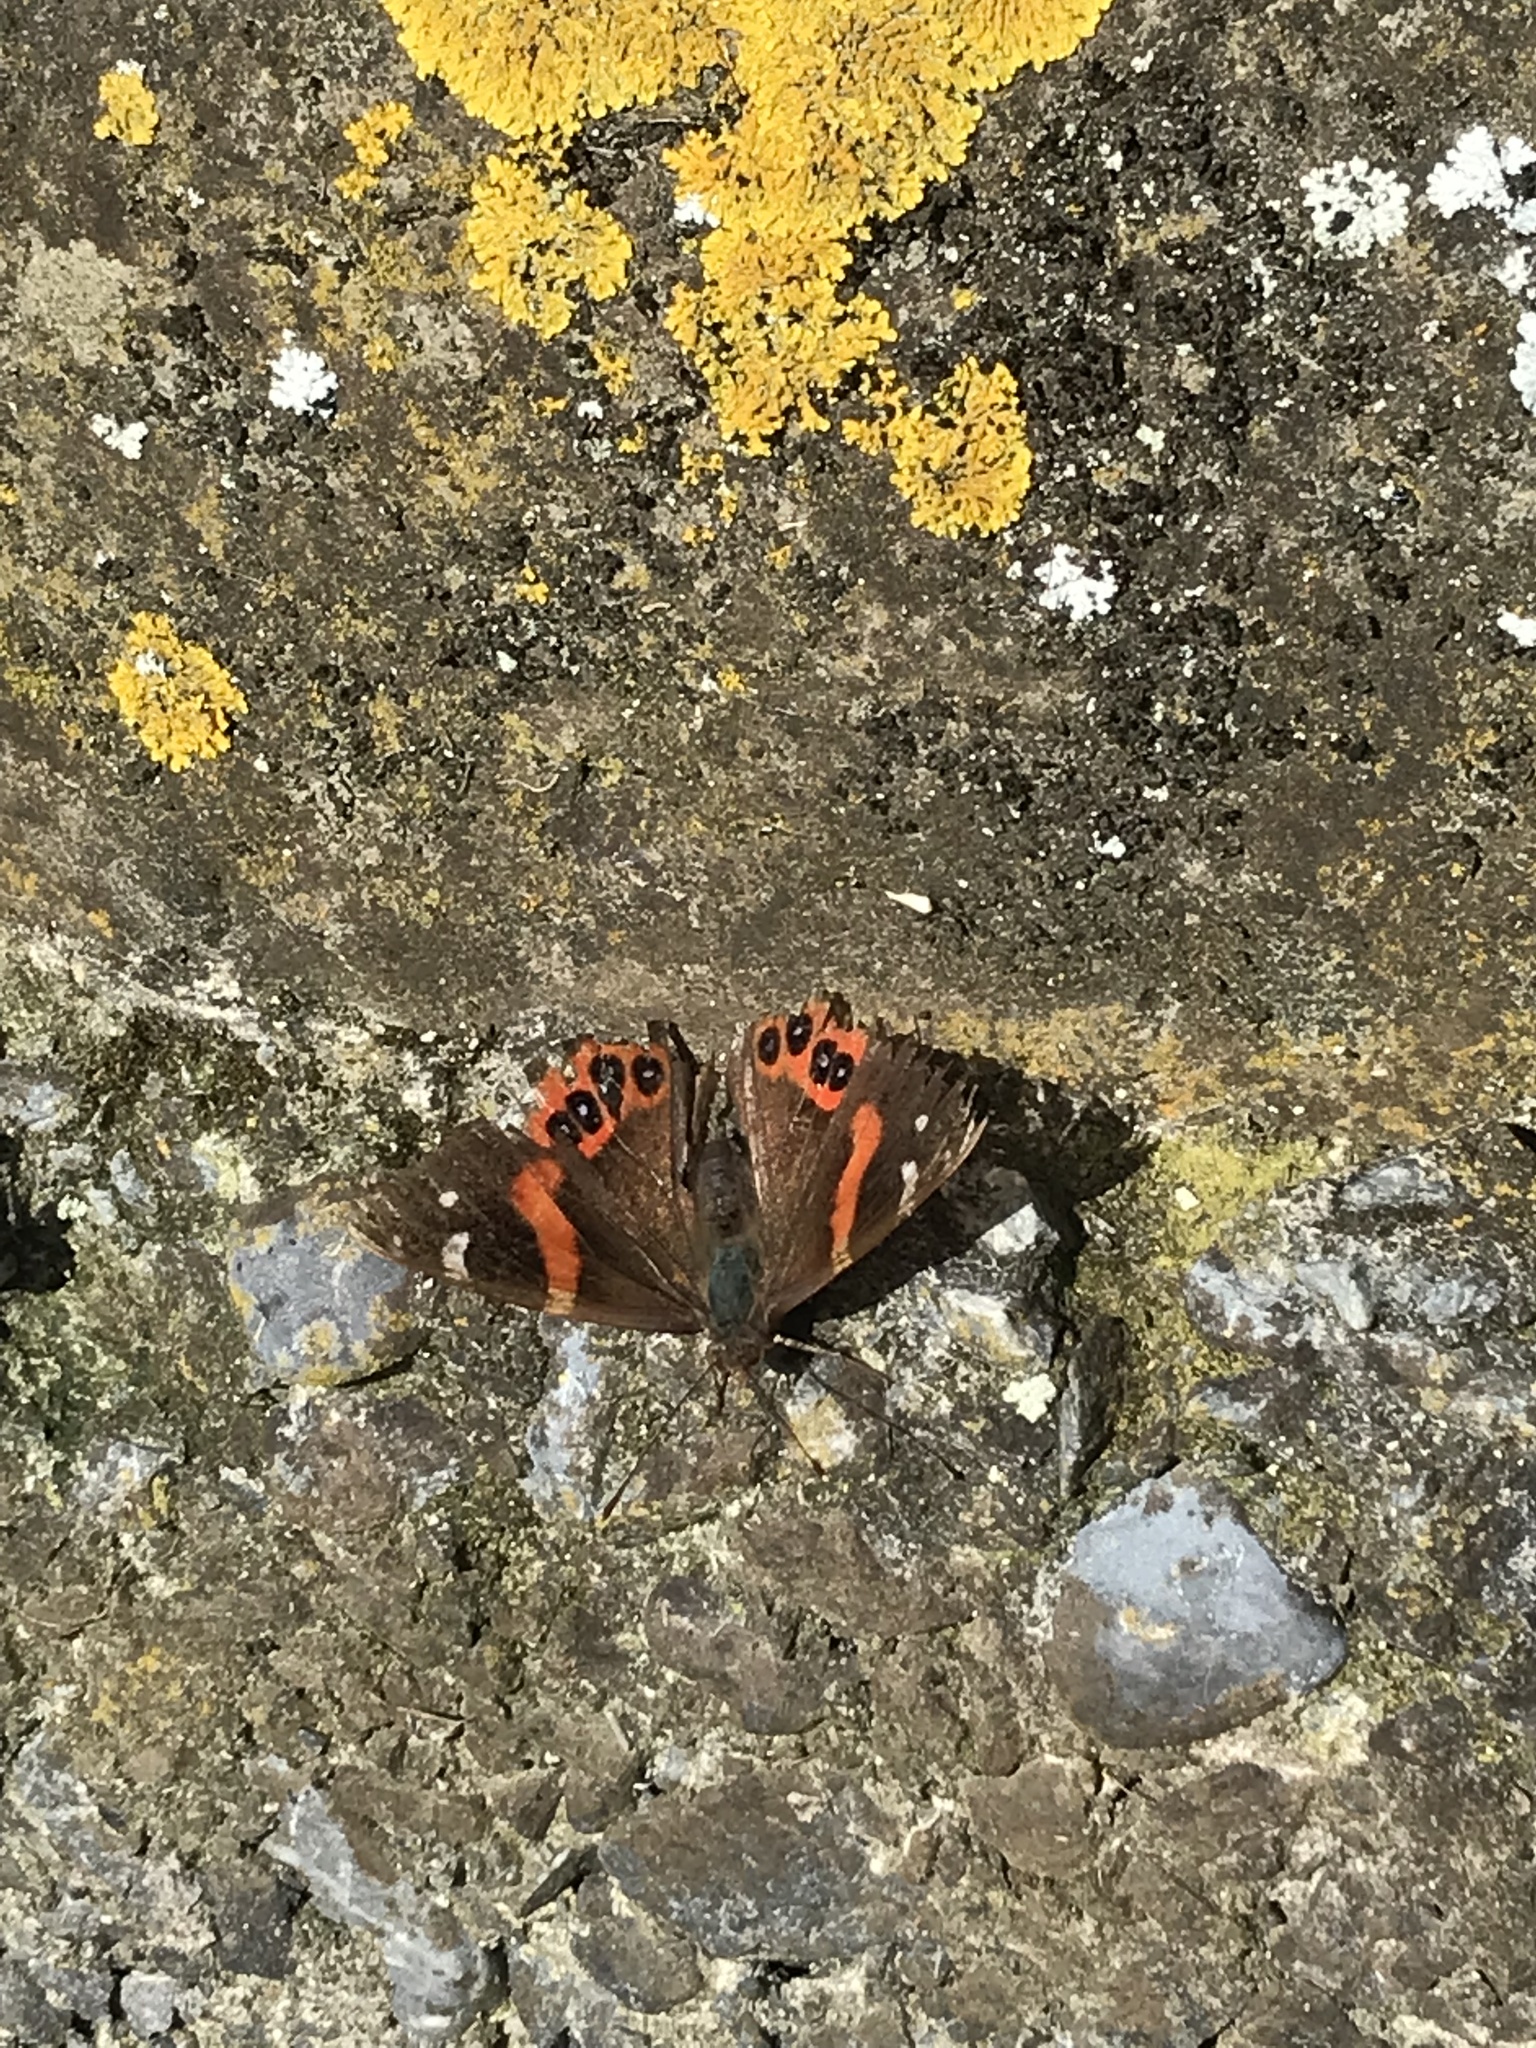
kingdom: Animalia
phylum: Arthropoda
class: Insecta
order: Lepidoptera
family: Nymphalidae
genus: Vanessa
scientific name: Vanessa gonerilla
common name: New zealand red admiral
